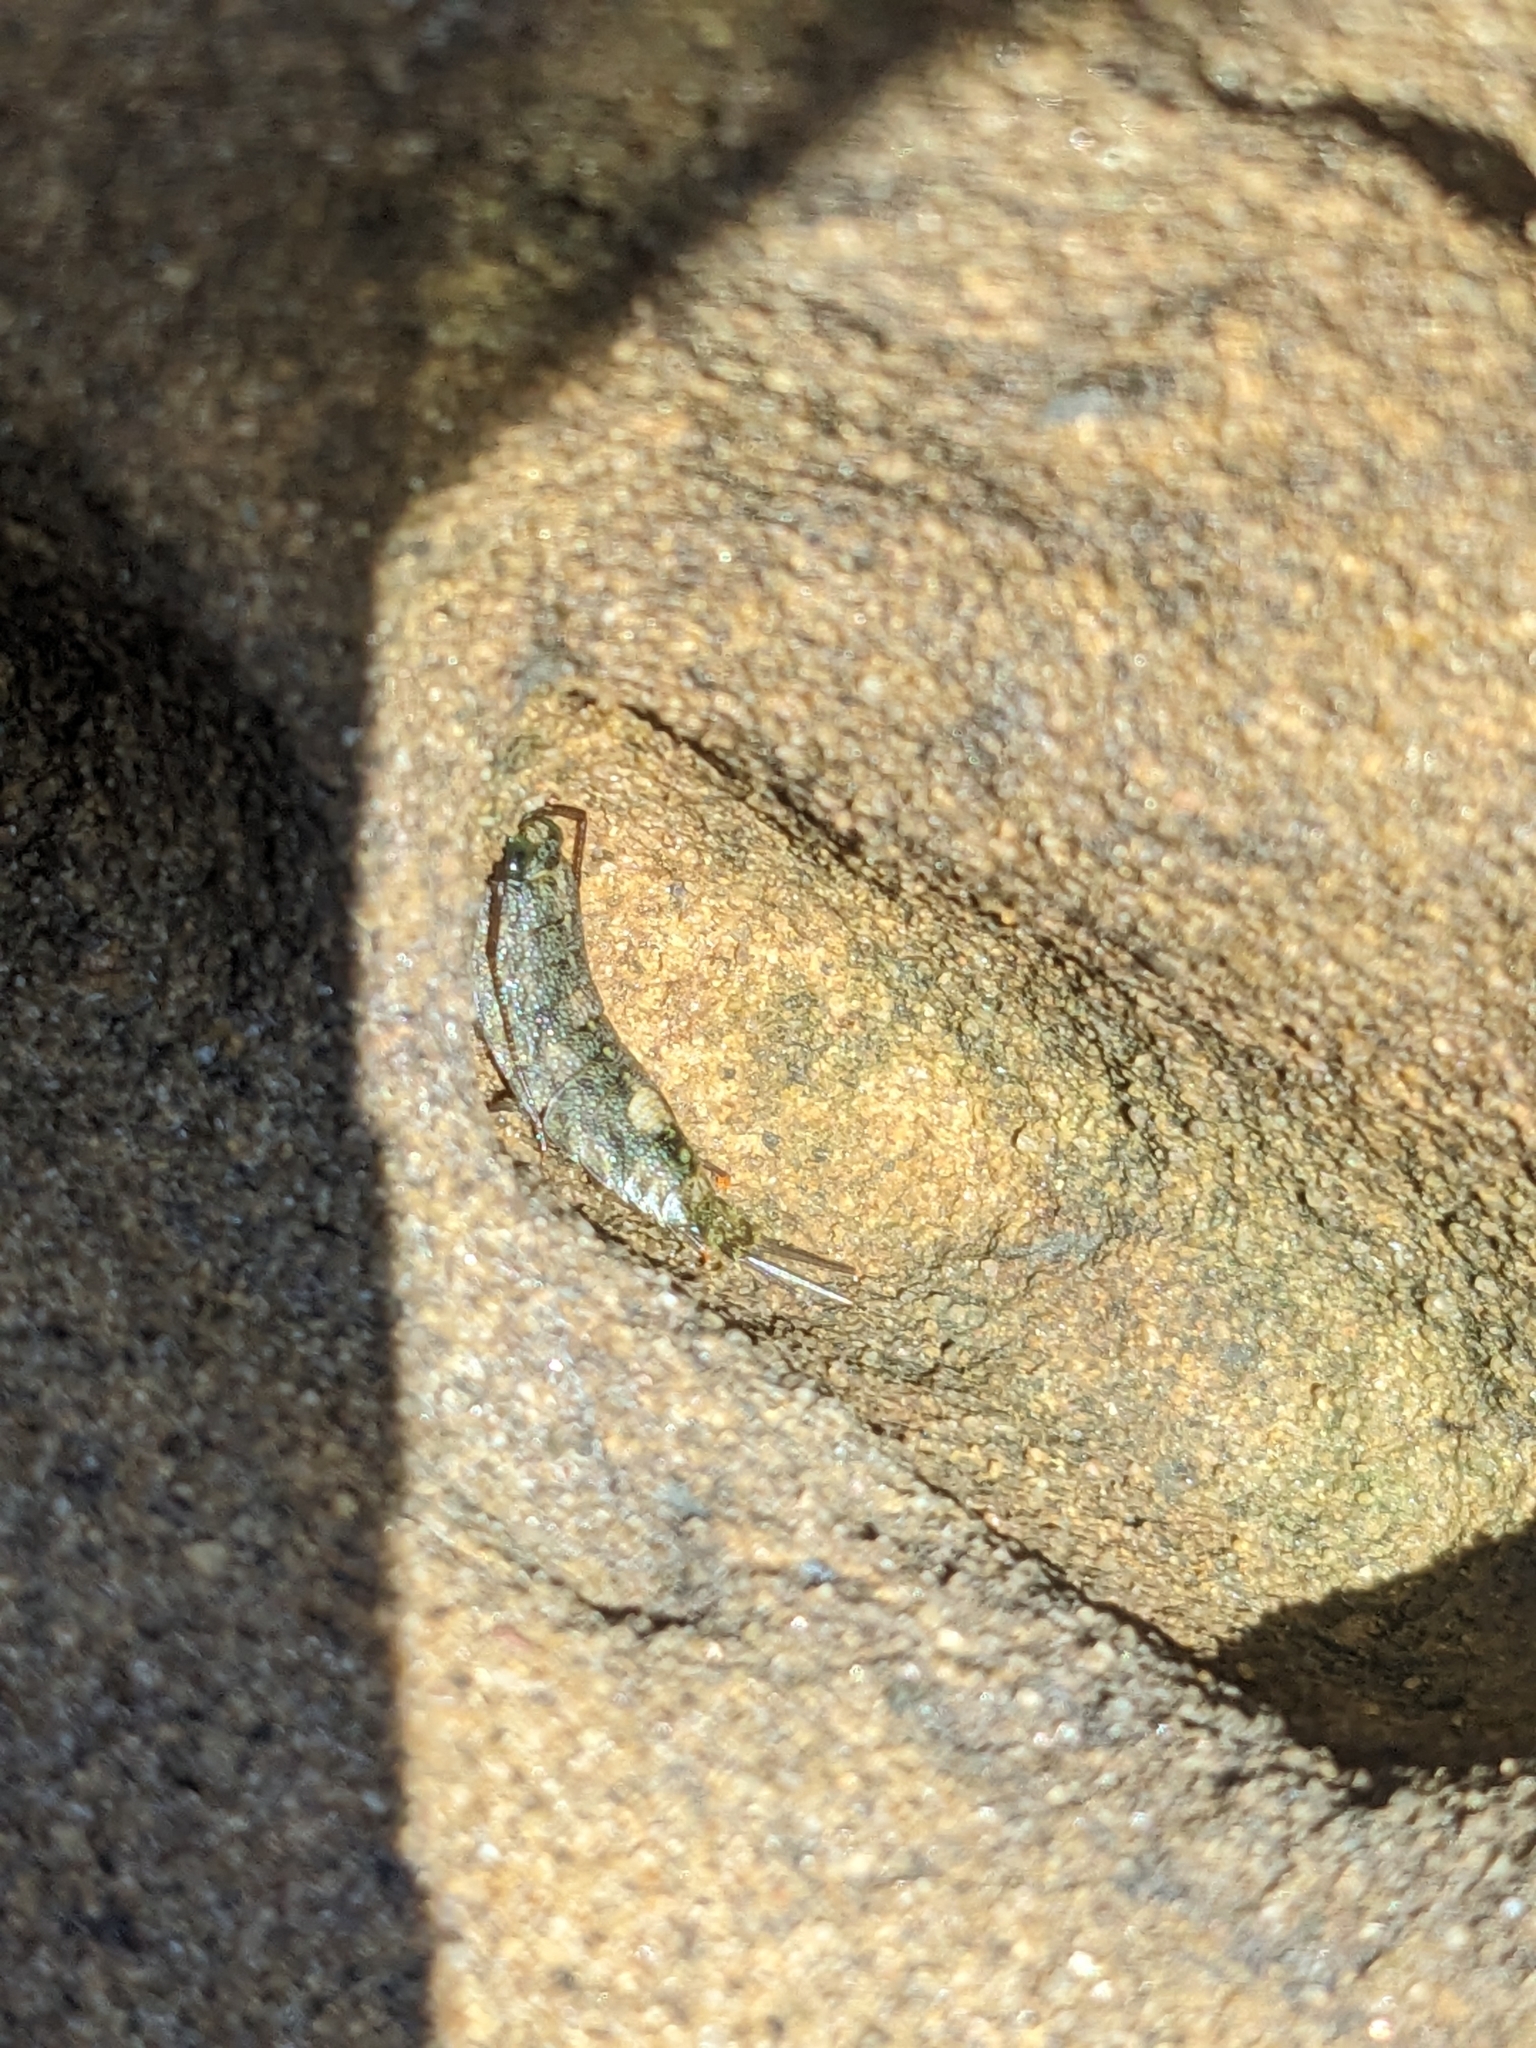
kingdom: Animalia
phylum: Arthropoda
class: Malacostraca
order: Isopoda
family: Ligiidae
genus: Ligia
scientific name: Ligia occidentalis
